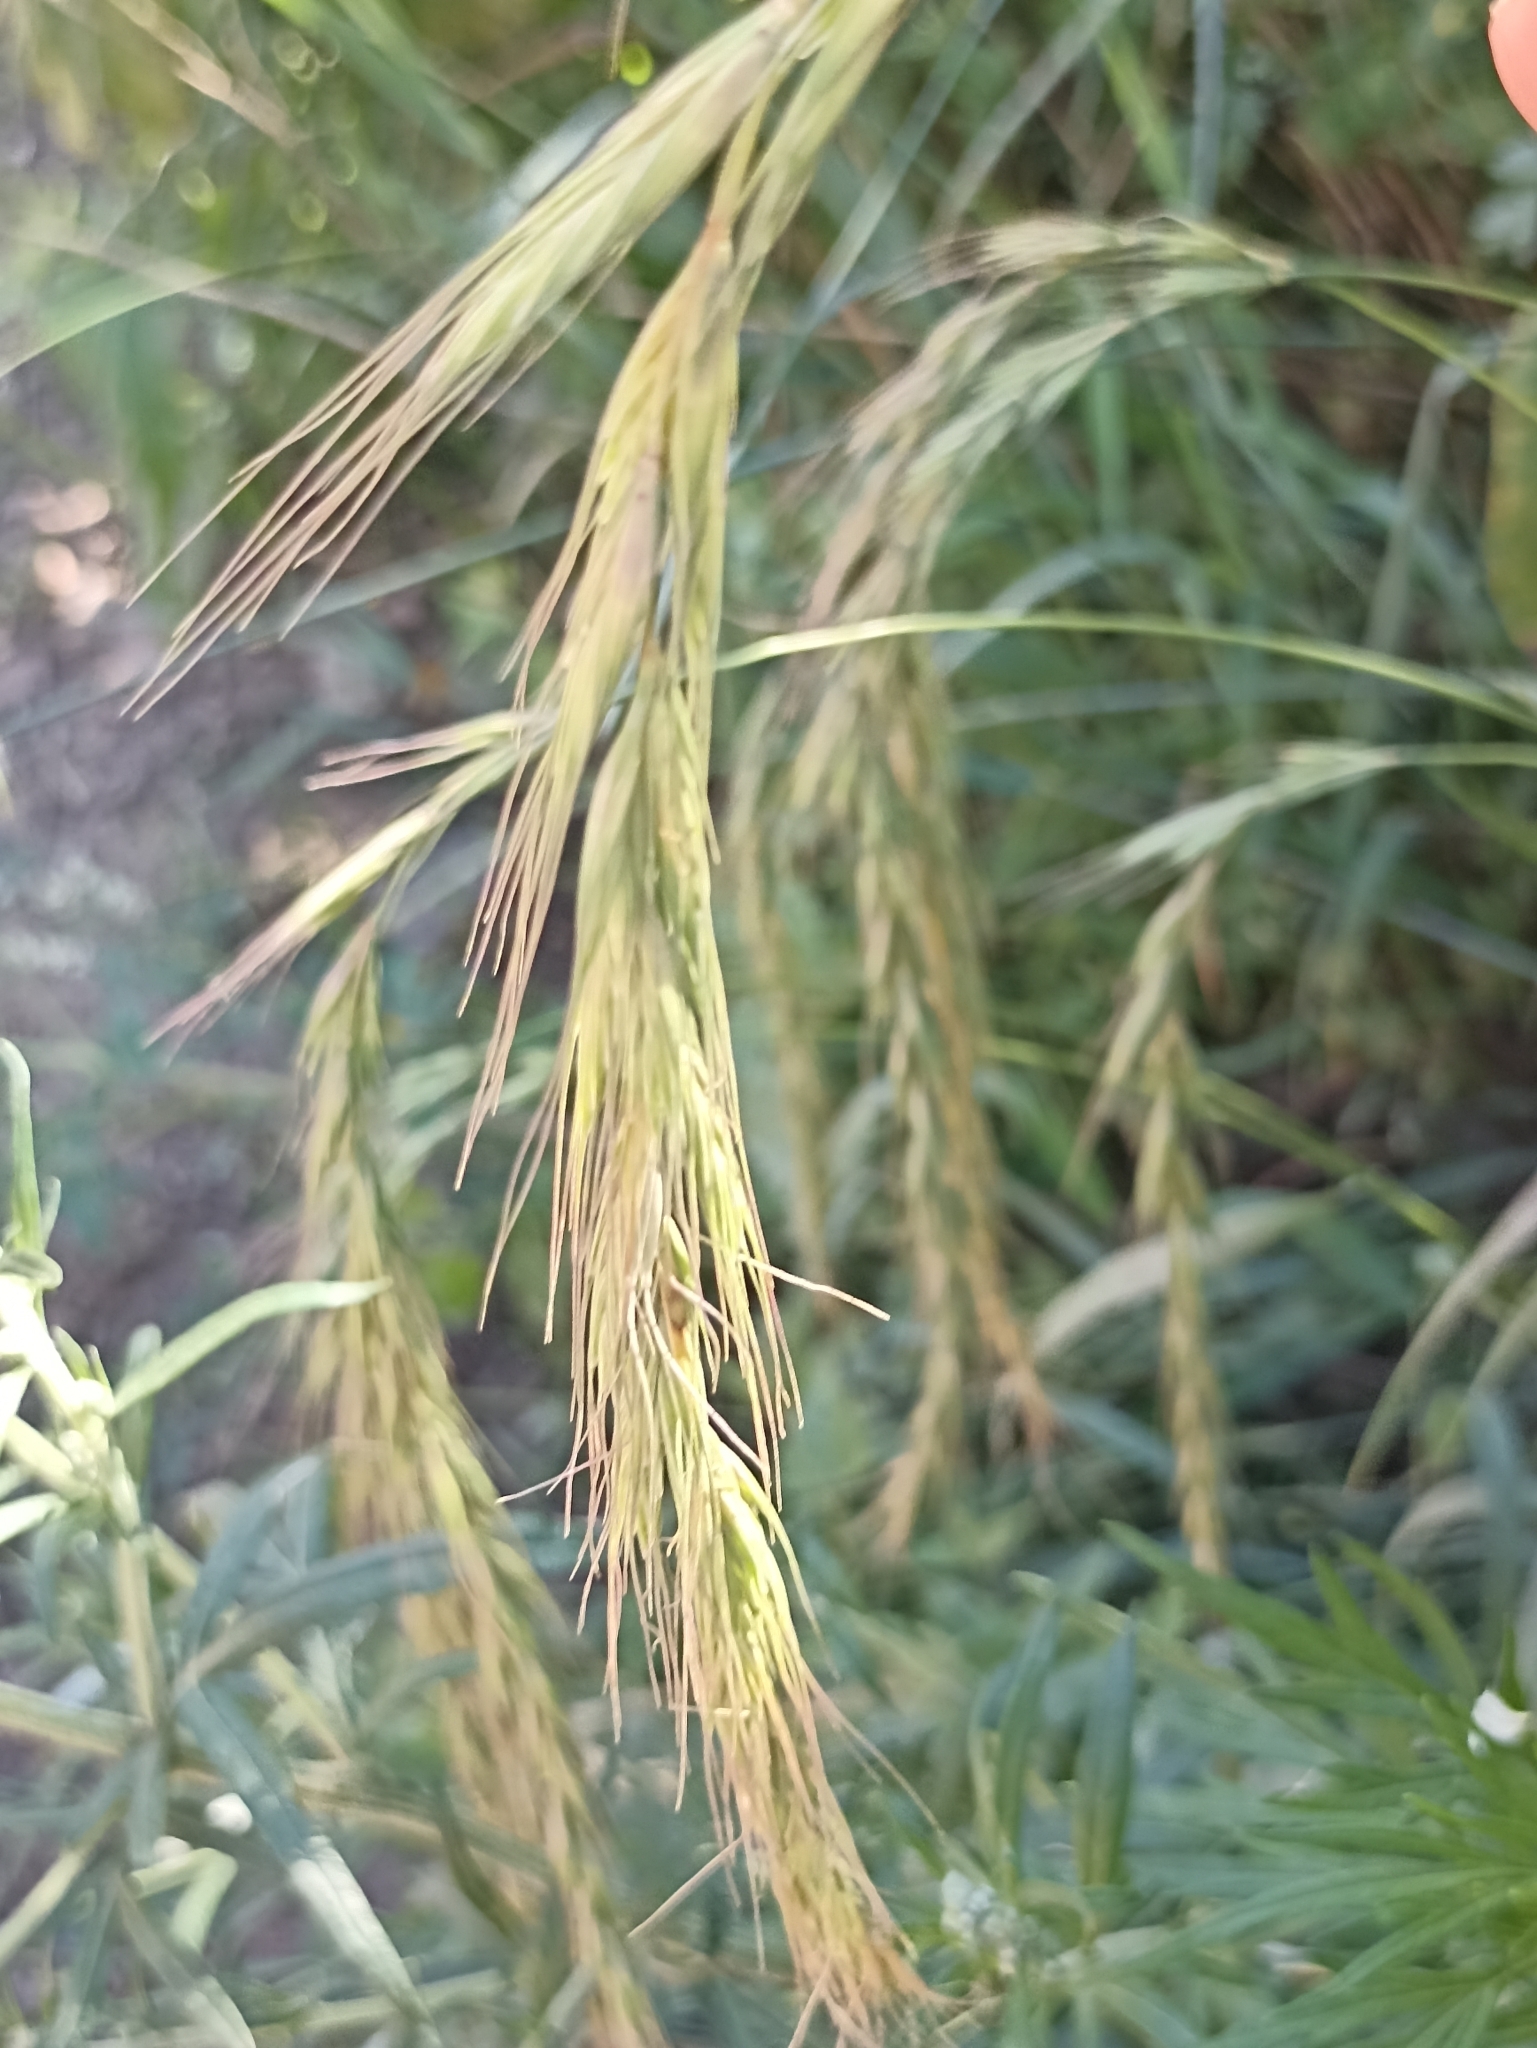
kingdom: Plantae
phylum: Tracheophyta
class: Liliopsida
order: Poales
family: Poaceae
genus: Elymus
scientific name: Elymus sibiricus
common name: Siberian wildrye
